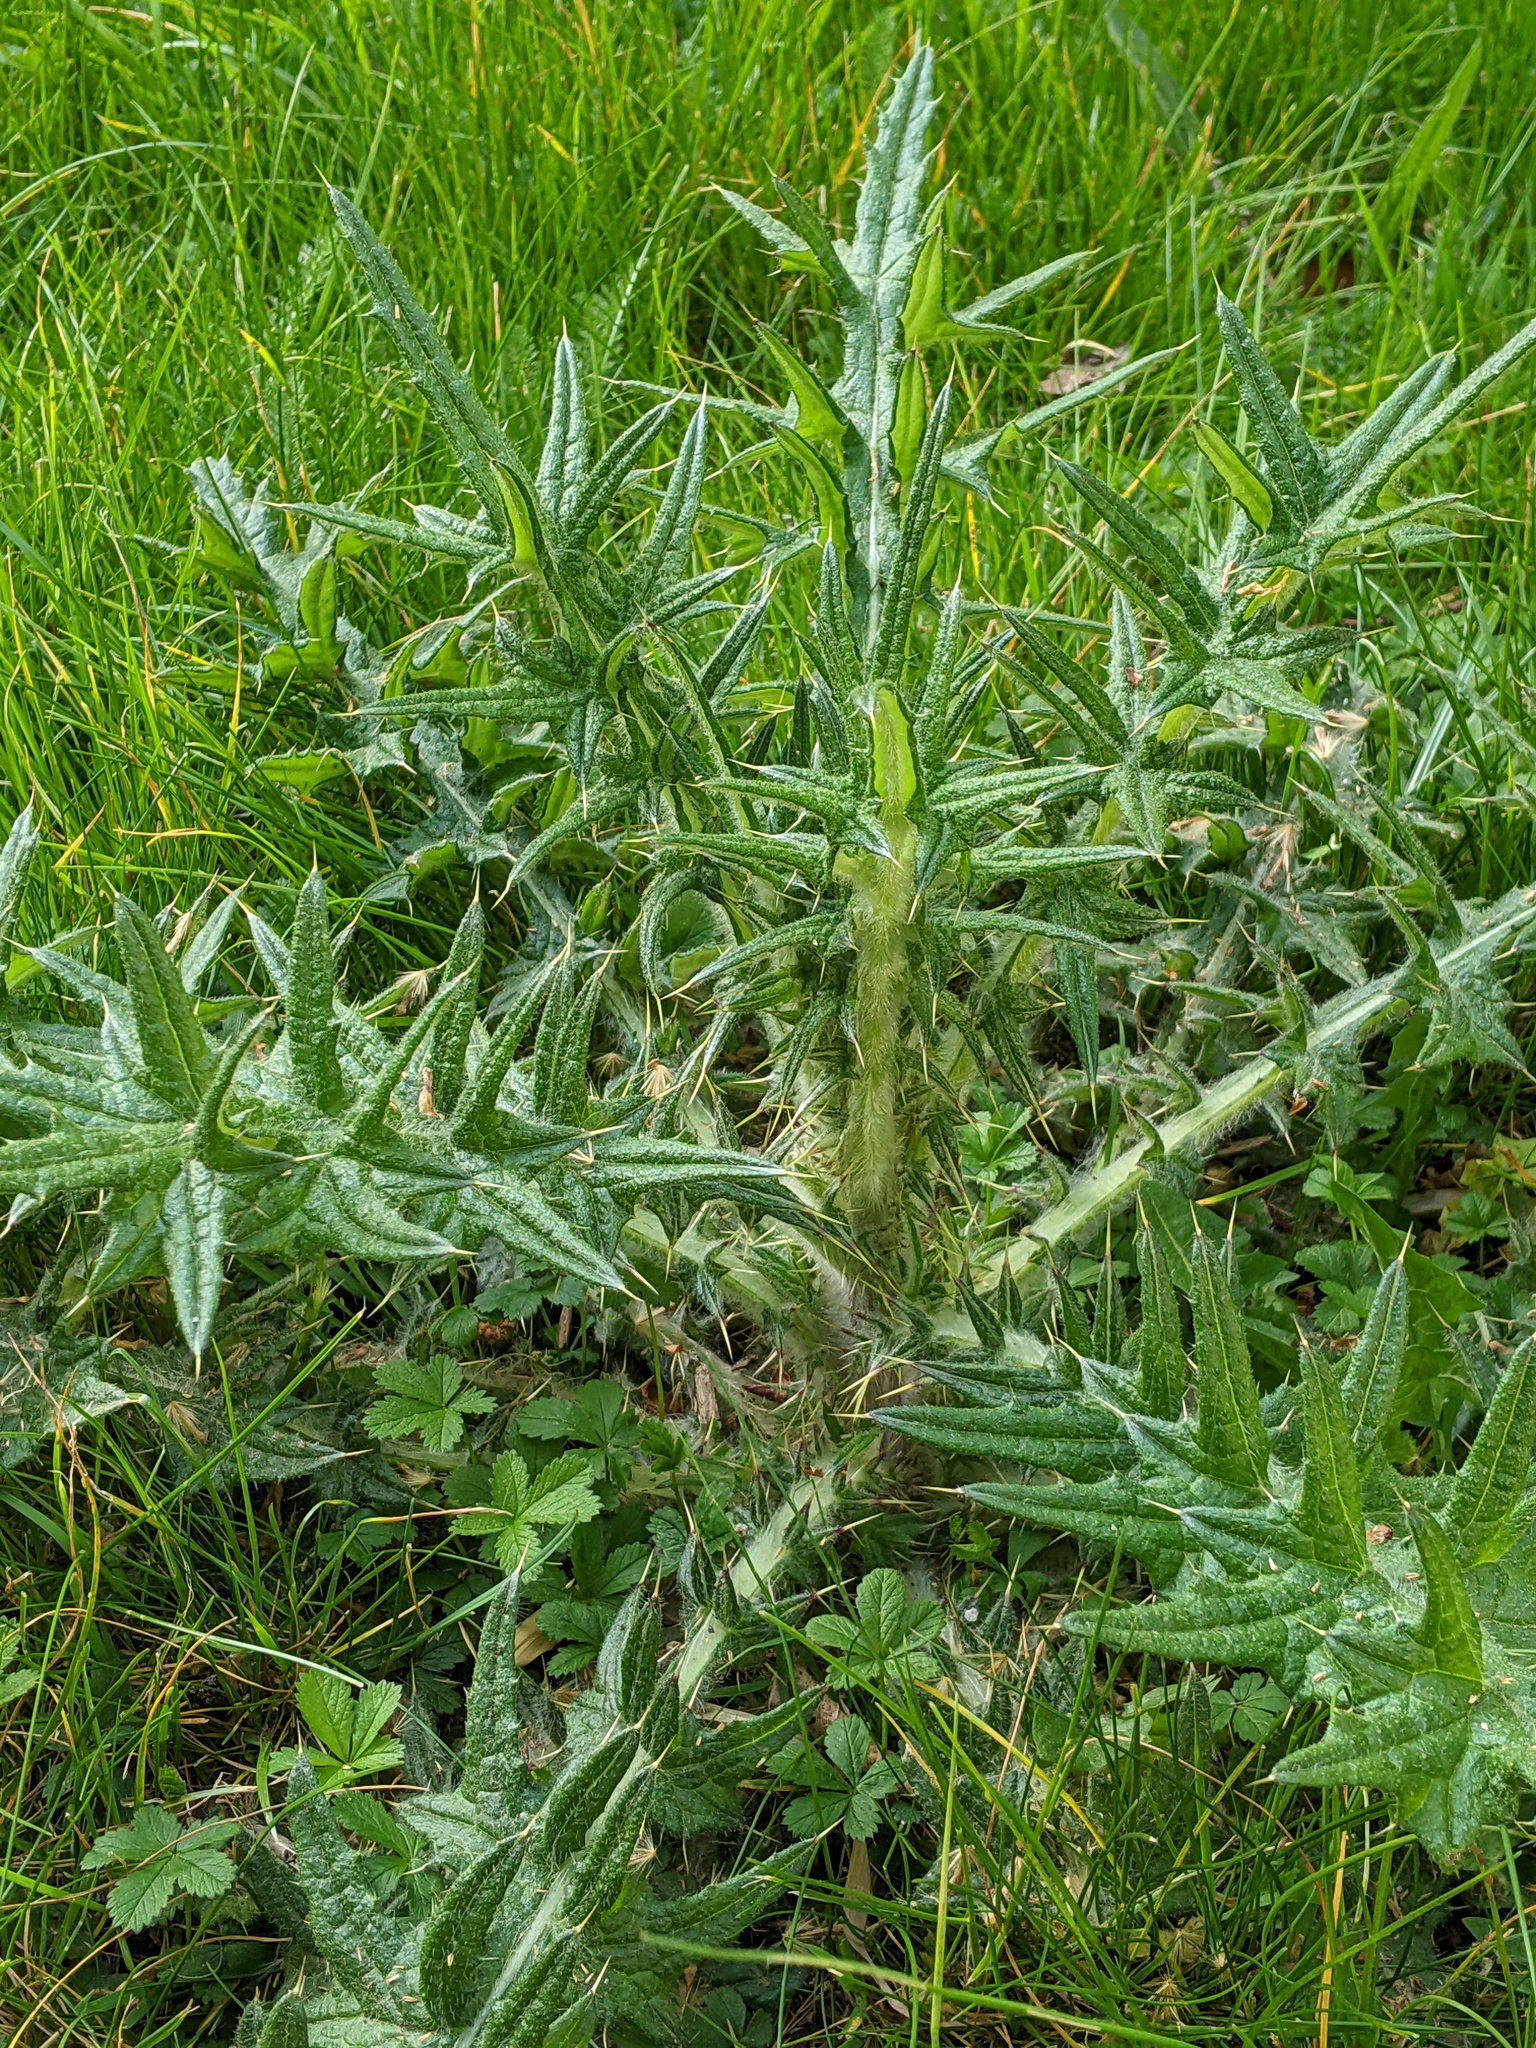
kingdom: Plantae
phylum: Tracheophyta
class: Magnoliopsida
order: Asterales
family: Asteraceae
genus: Cirsium
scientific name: Cirsium vulgare
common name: Bull thistle
